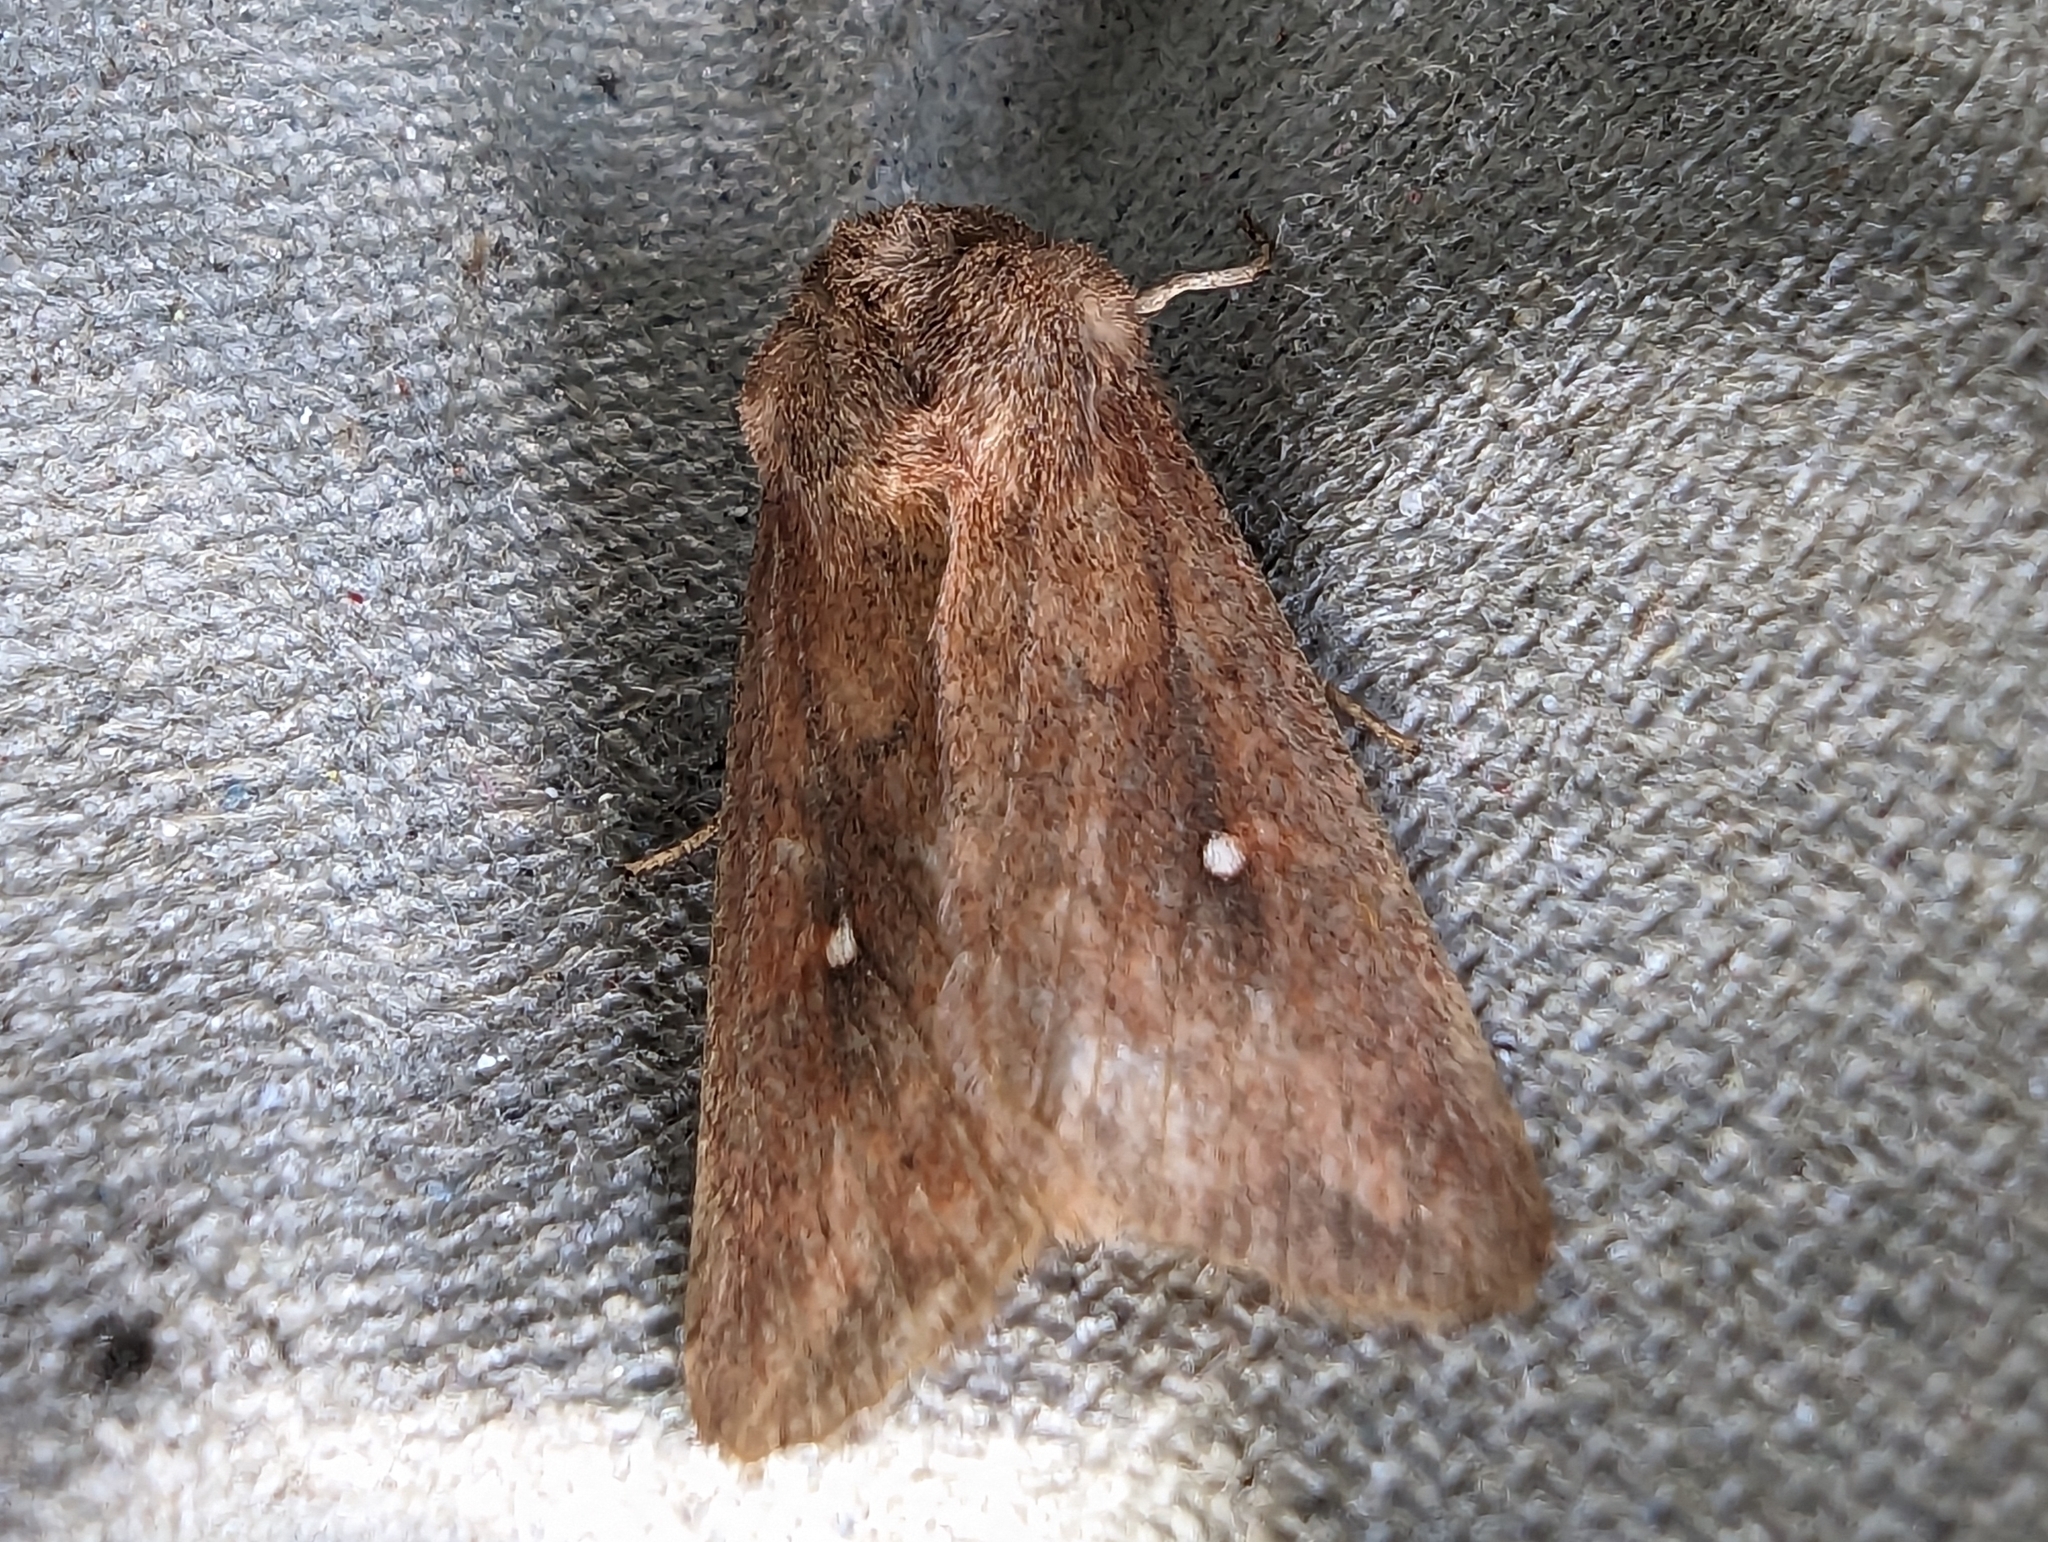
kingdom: Animalia
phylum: Arthropoda
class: Insecta
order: Lepidoptera
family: Noctuidae
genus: Mythimna
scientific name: Mythimna albipuncta
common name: White-point
